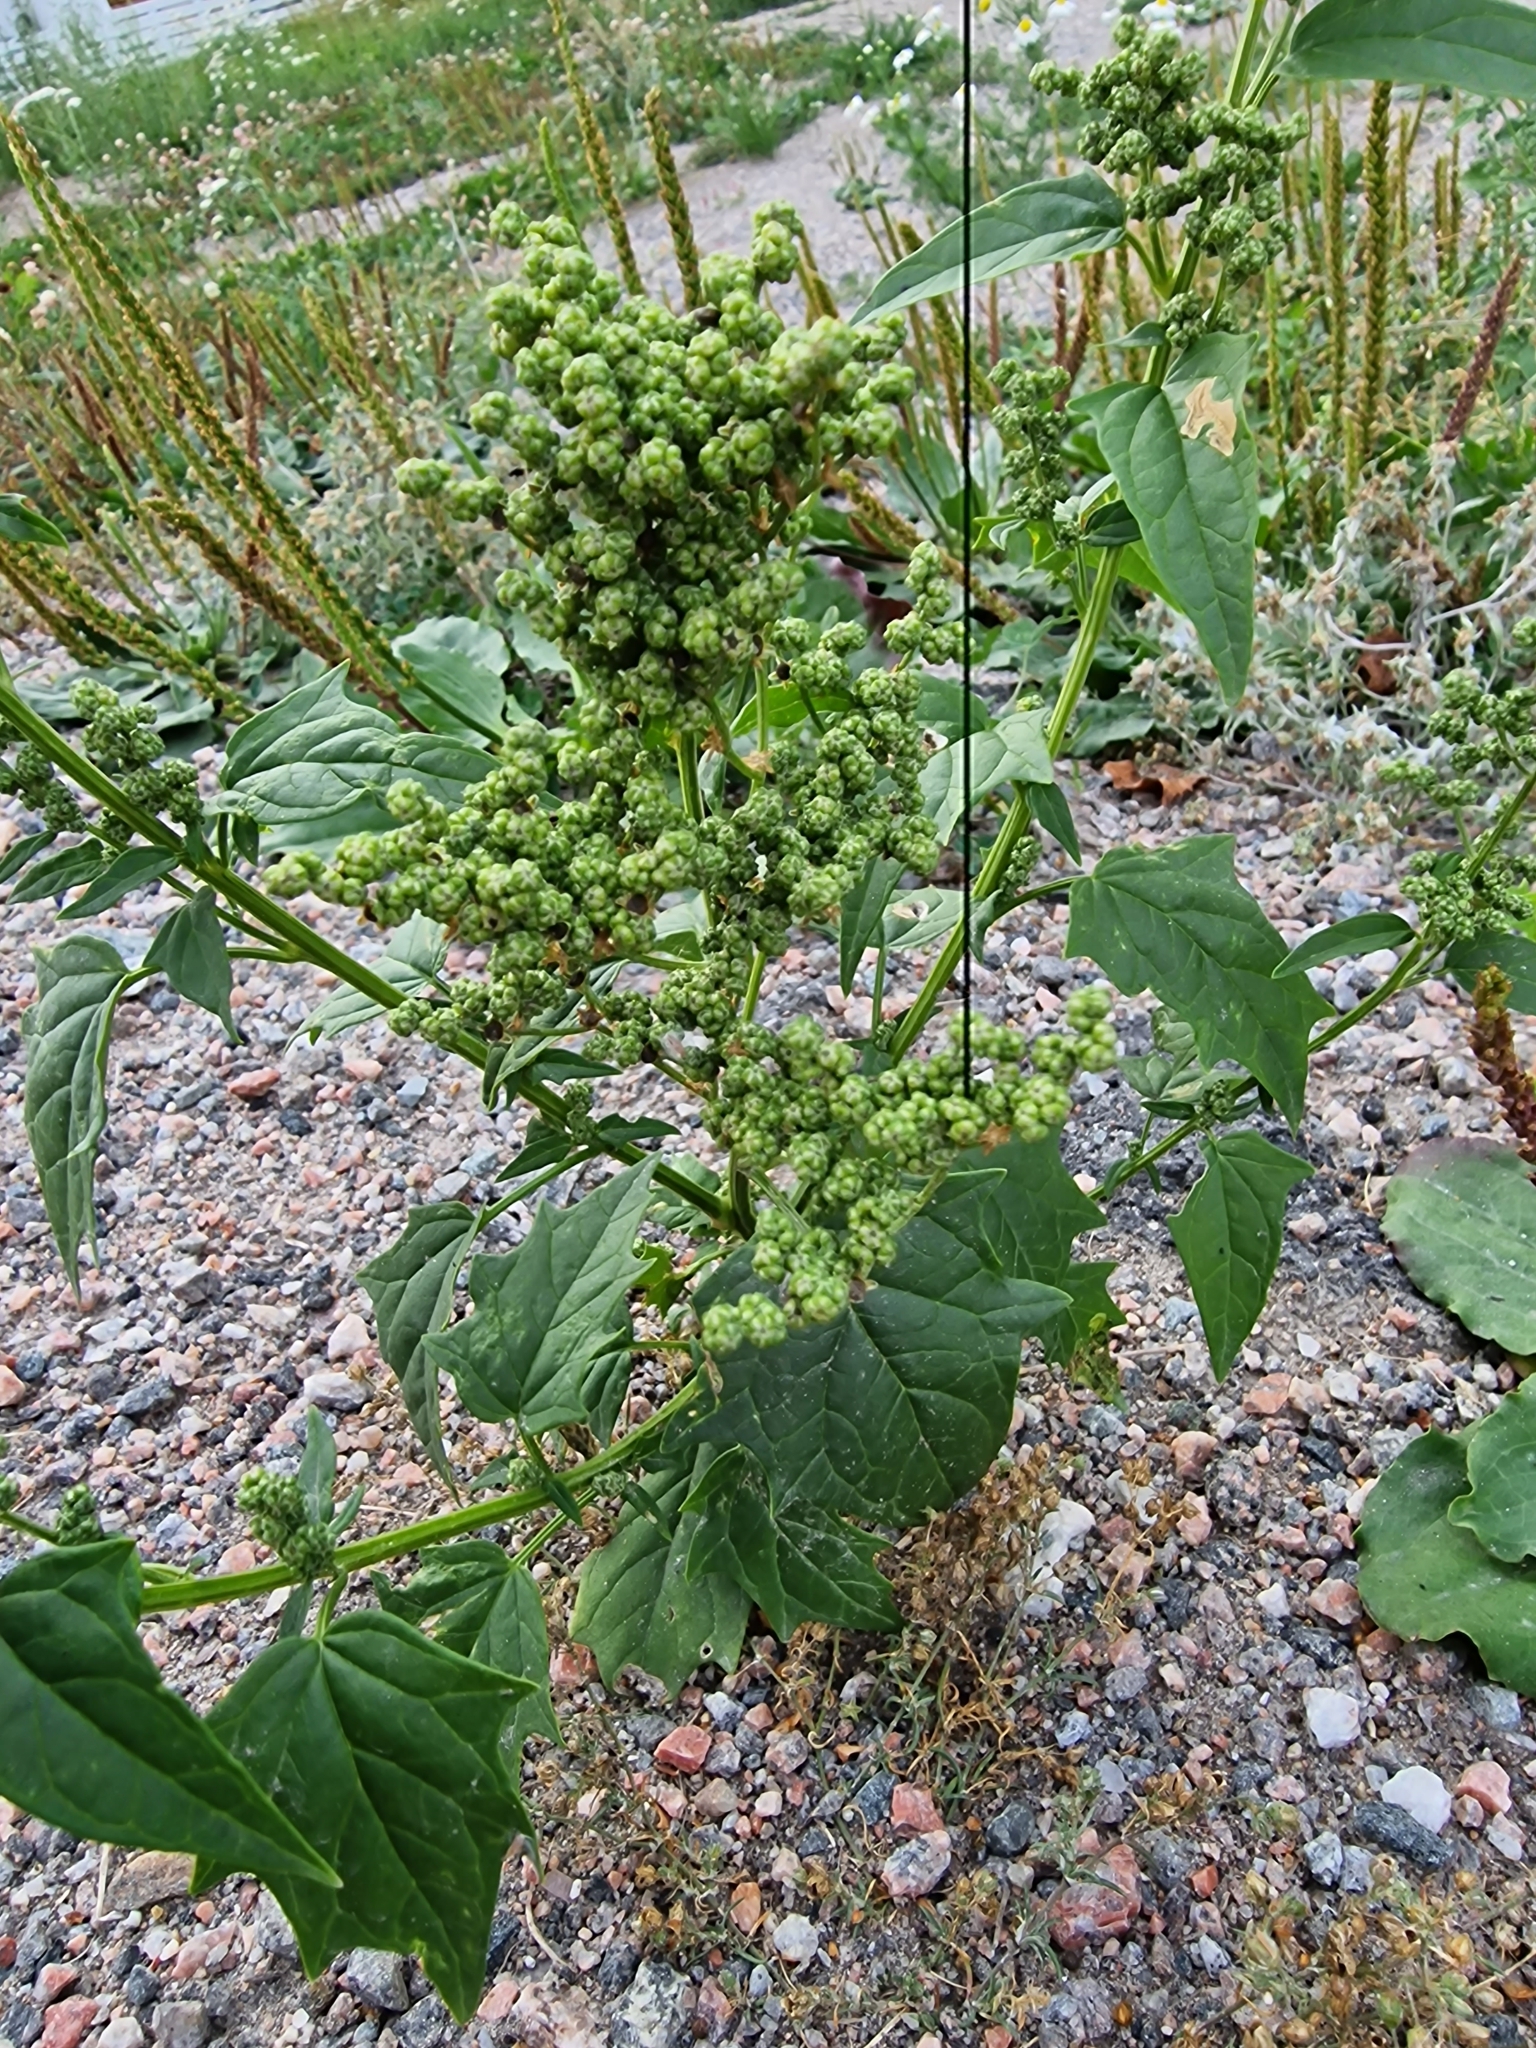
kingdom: Plantae
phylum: Tracheophyta
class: Magnoliopsida
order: Caryophyllales
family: Amaranthaceae
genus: Chenopodiastrum
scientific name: Chenopodiastrum hybridum
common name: Mapleleaf goosefoot
